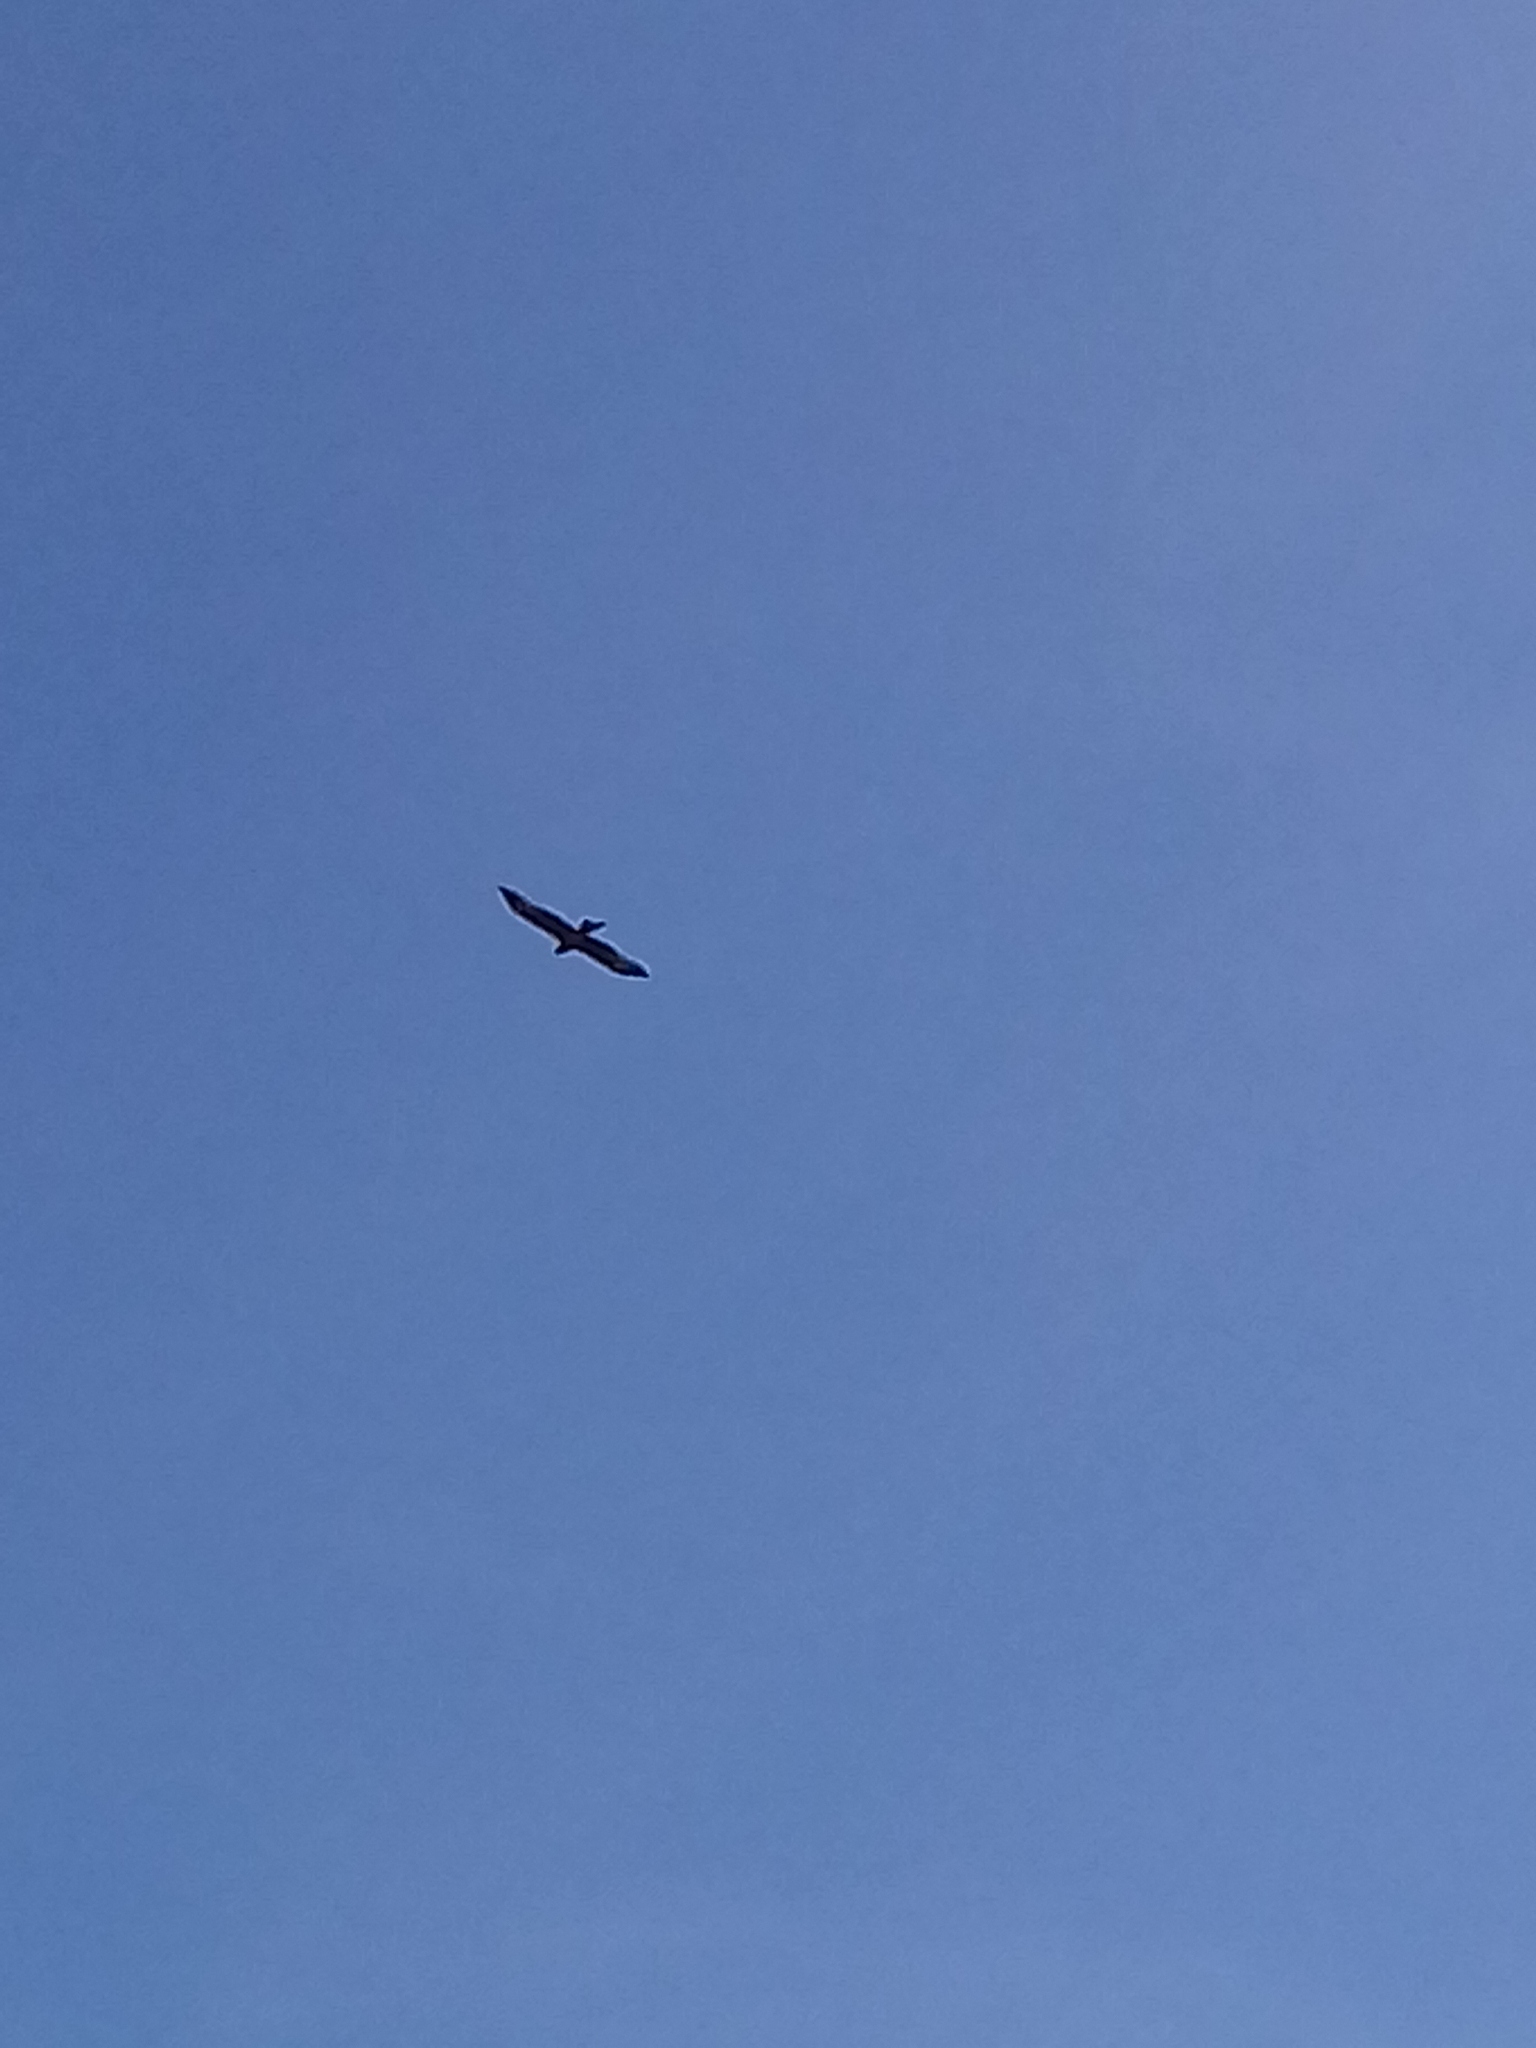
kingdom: Animalia
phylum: Chordata
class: Aves
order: Accipitriformes
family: Accipitridae
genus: Milvus
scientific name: Milvus migrans
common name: Black kite
